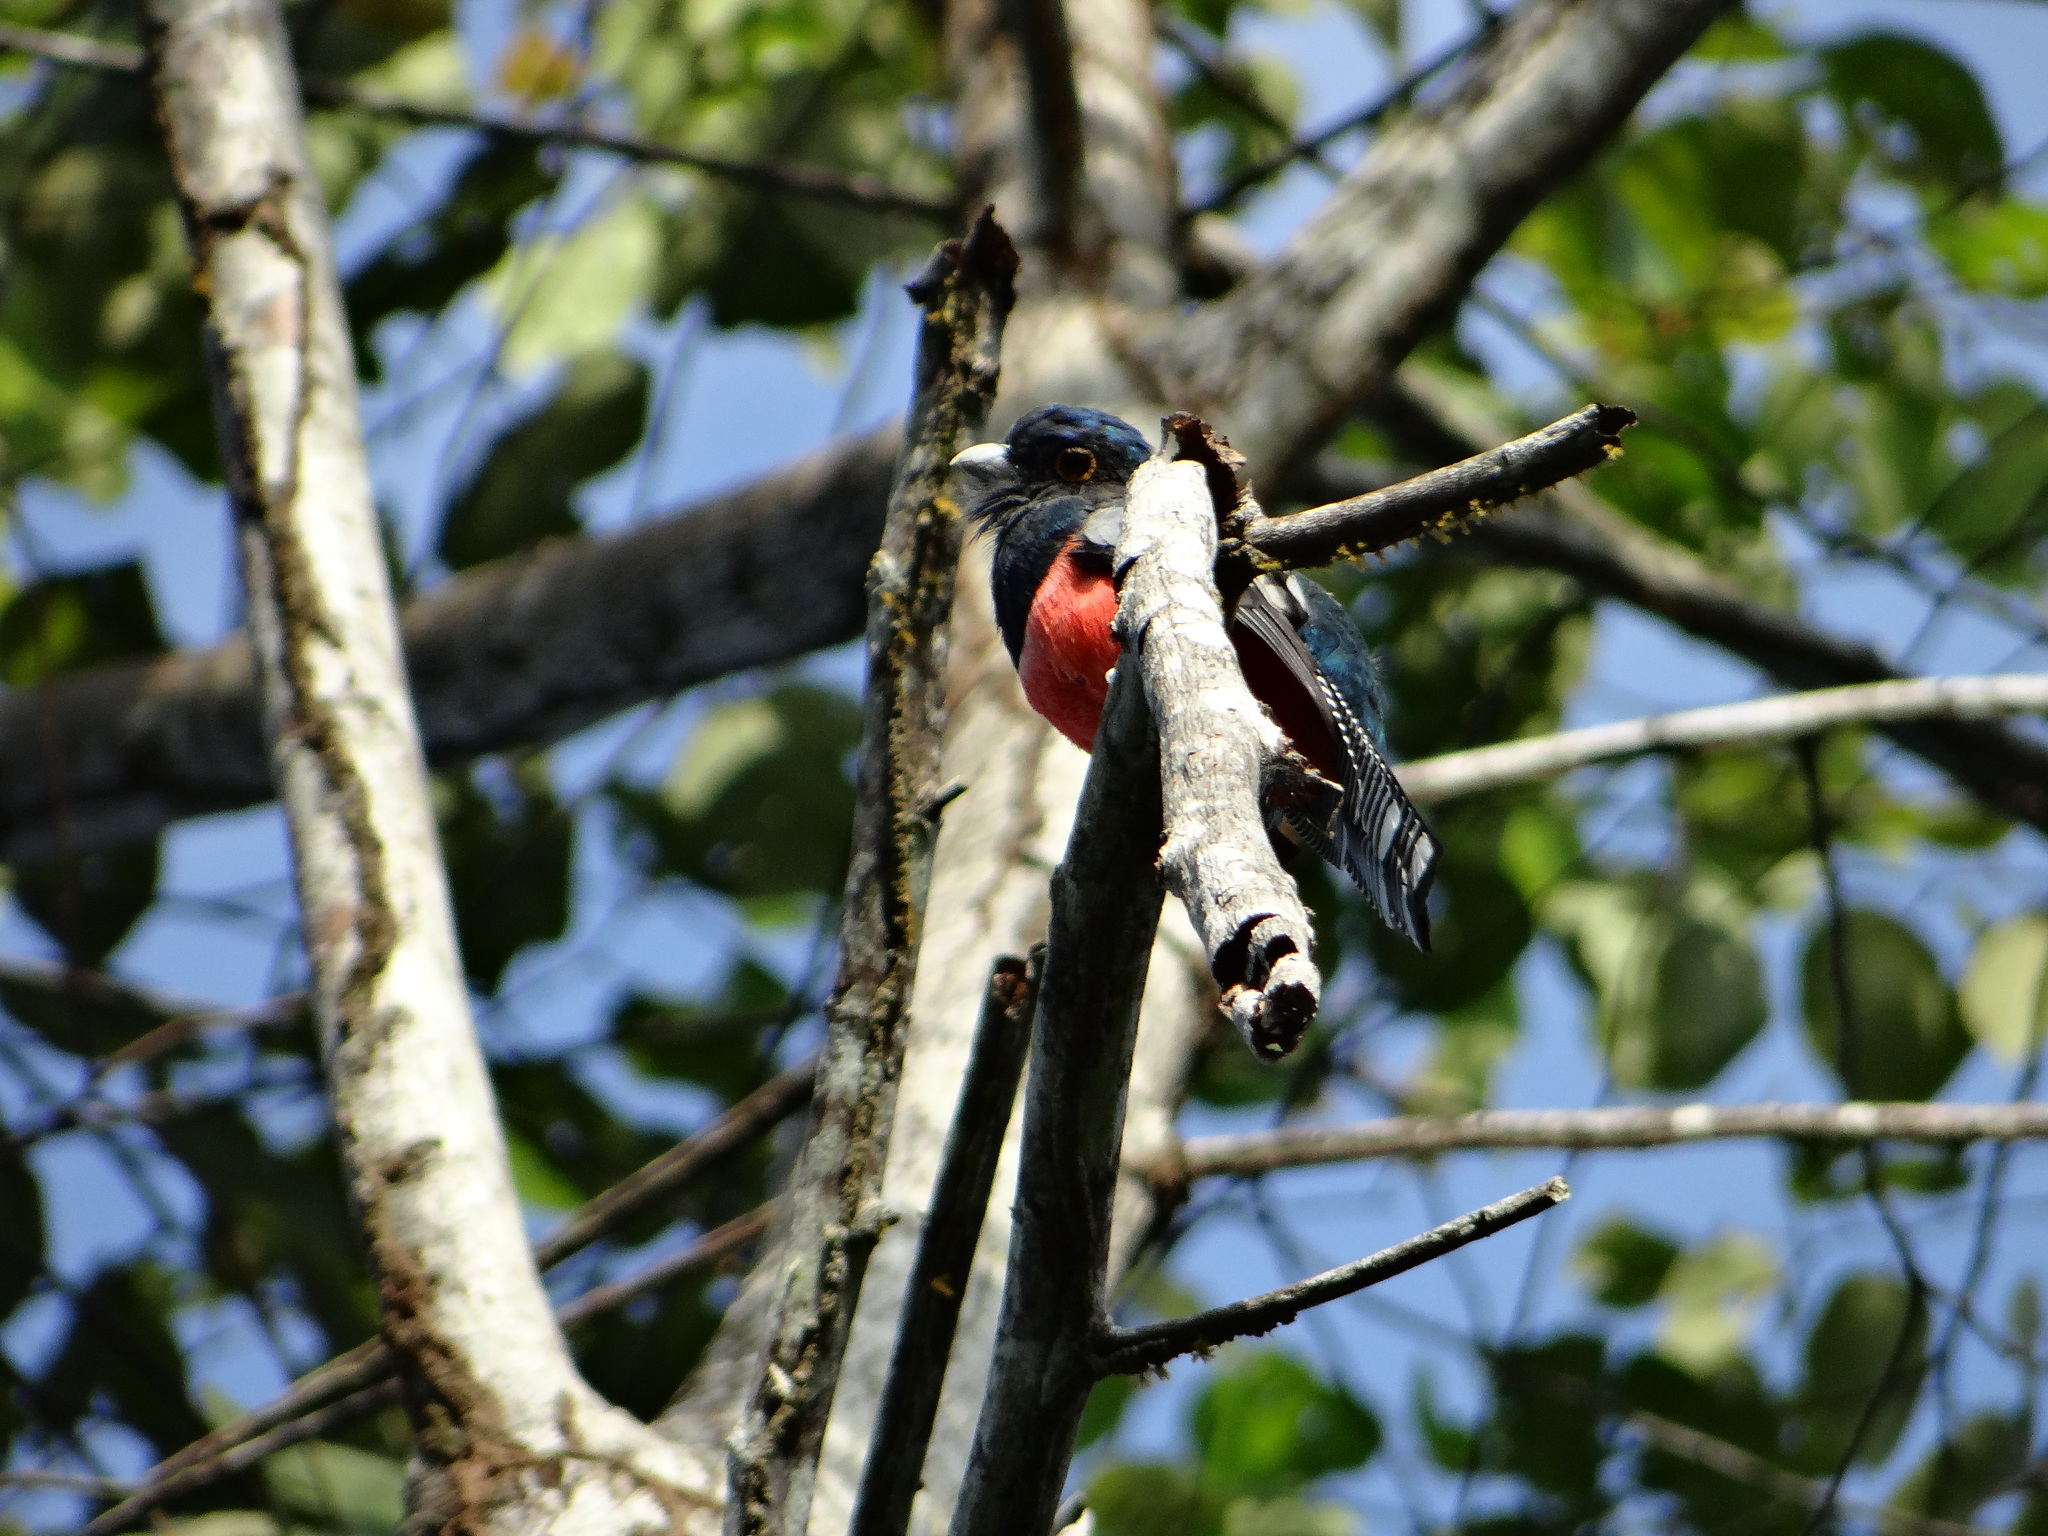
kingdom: Animalia
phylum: Chordata
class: Aves
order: Trogoniformes
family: Trogonidae
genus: Trogon
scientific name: Trogon curucui
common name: Blue-crowned trogon
